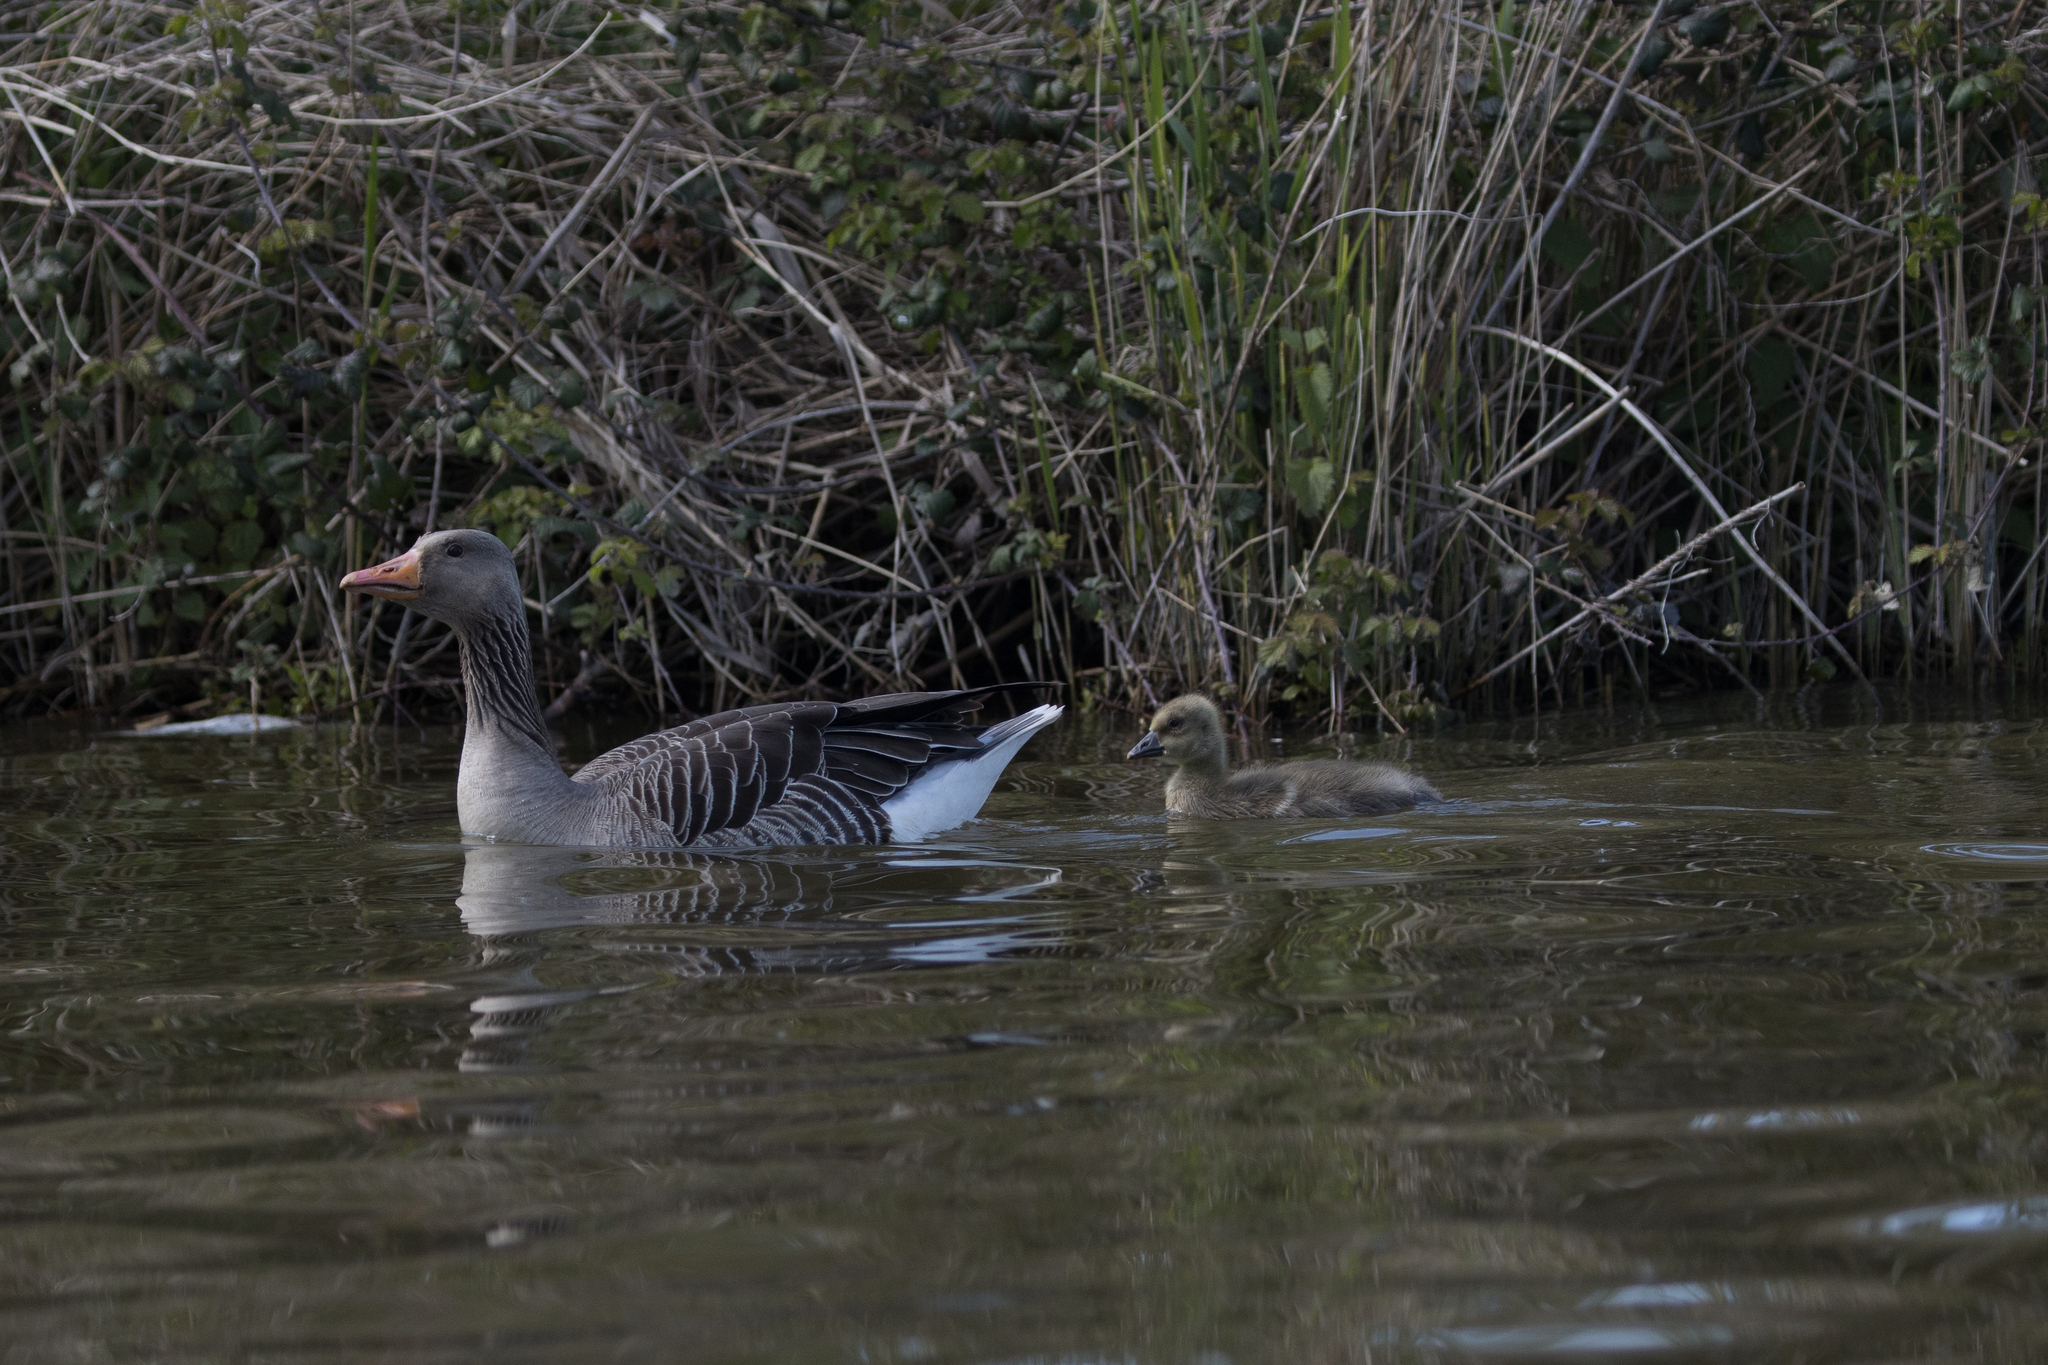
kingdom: Animalia
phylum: Chordata
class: Aves
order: Anseriformes
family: Anatidae
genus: Anser
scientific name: Anser anser
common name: Greylag goose
